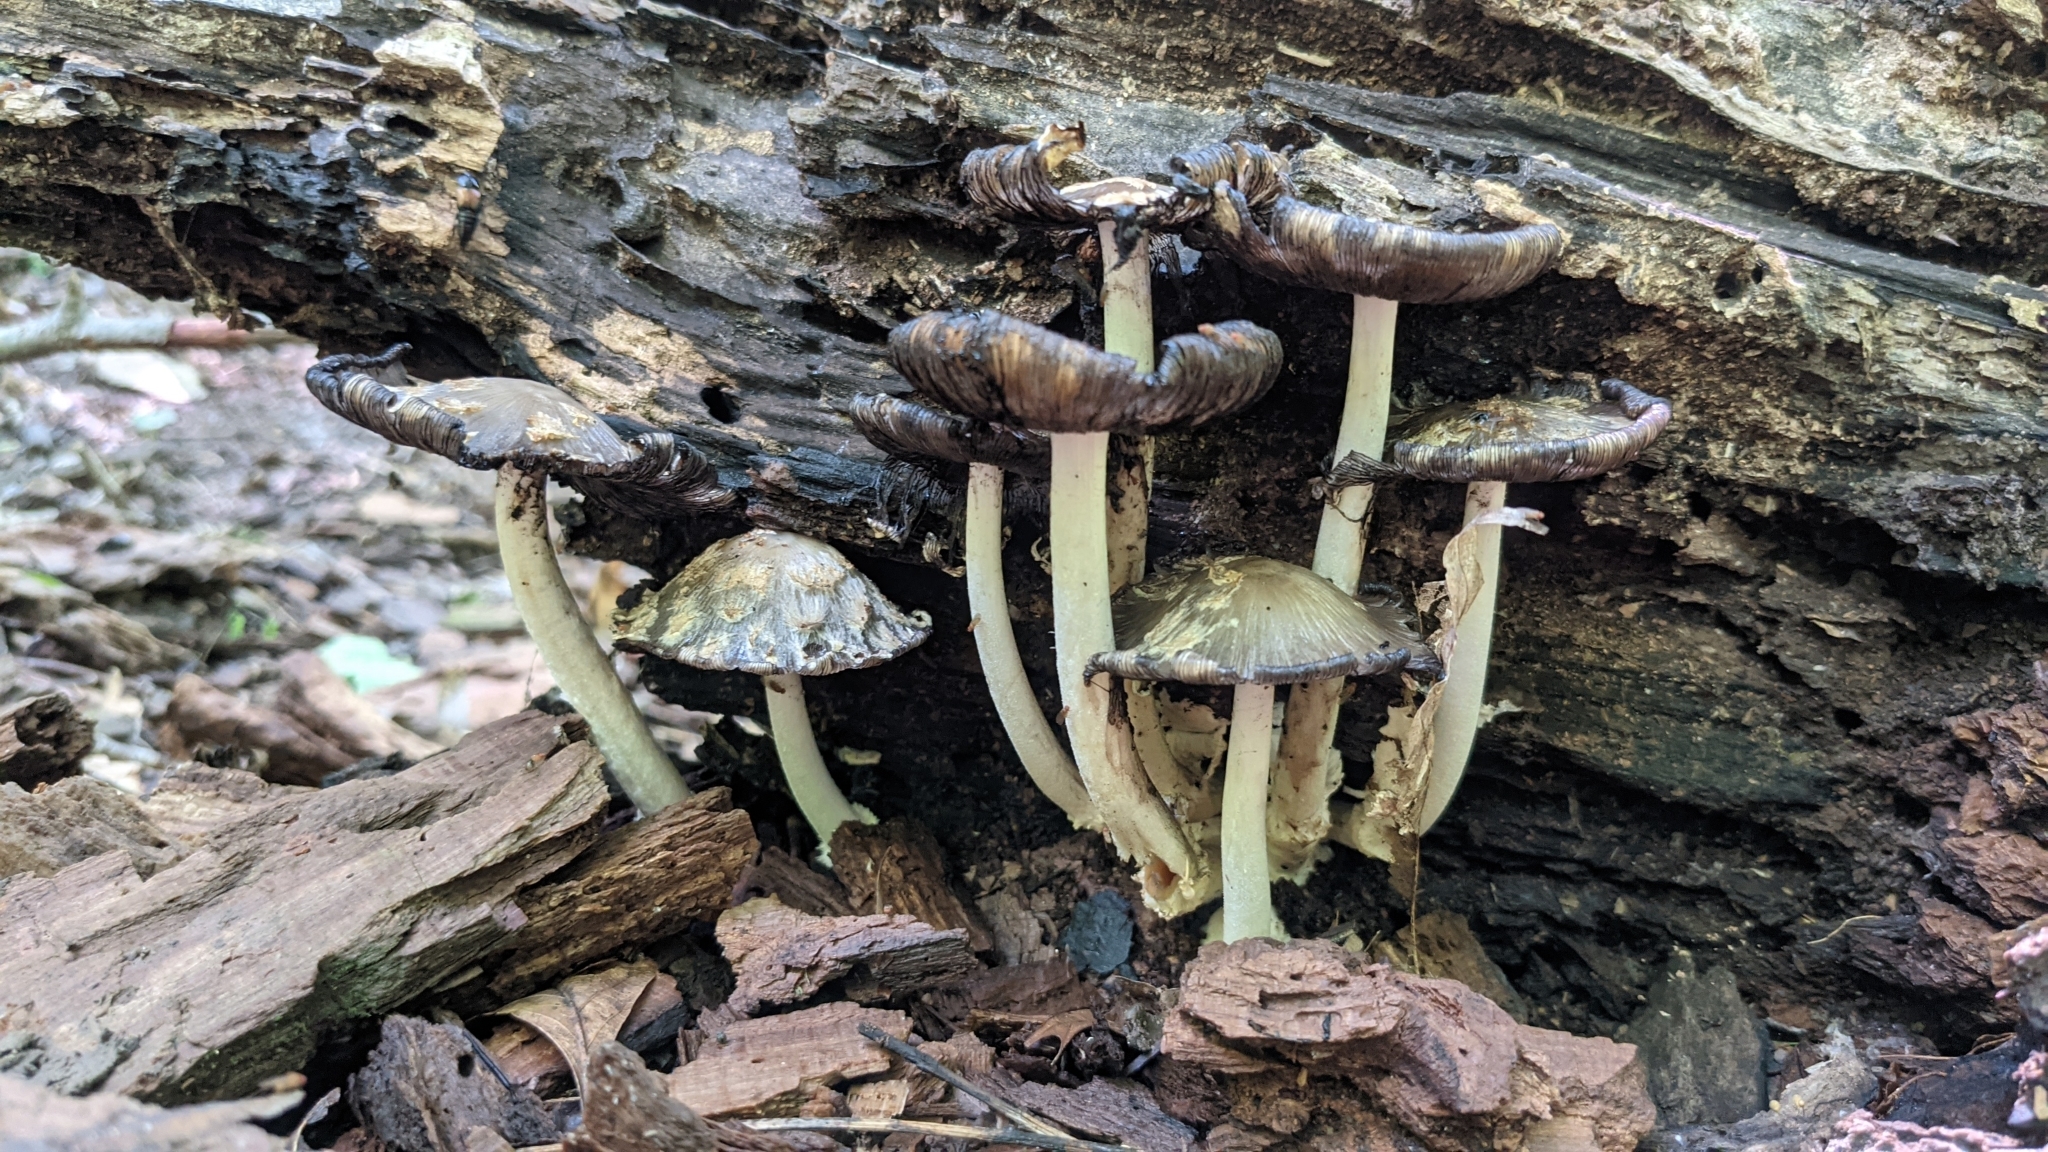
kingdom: Fungi
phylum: Basidiomycota
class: Agaricomycetes
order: Agaricales
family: Psathyrellaceae
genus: Coprinopsis
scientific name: Coprinopsis variegata
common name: Scaly ink cap
